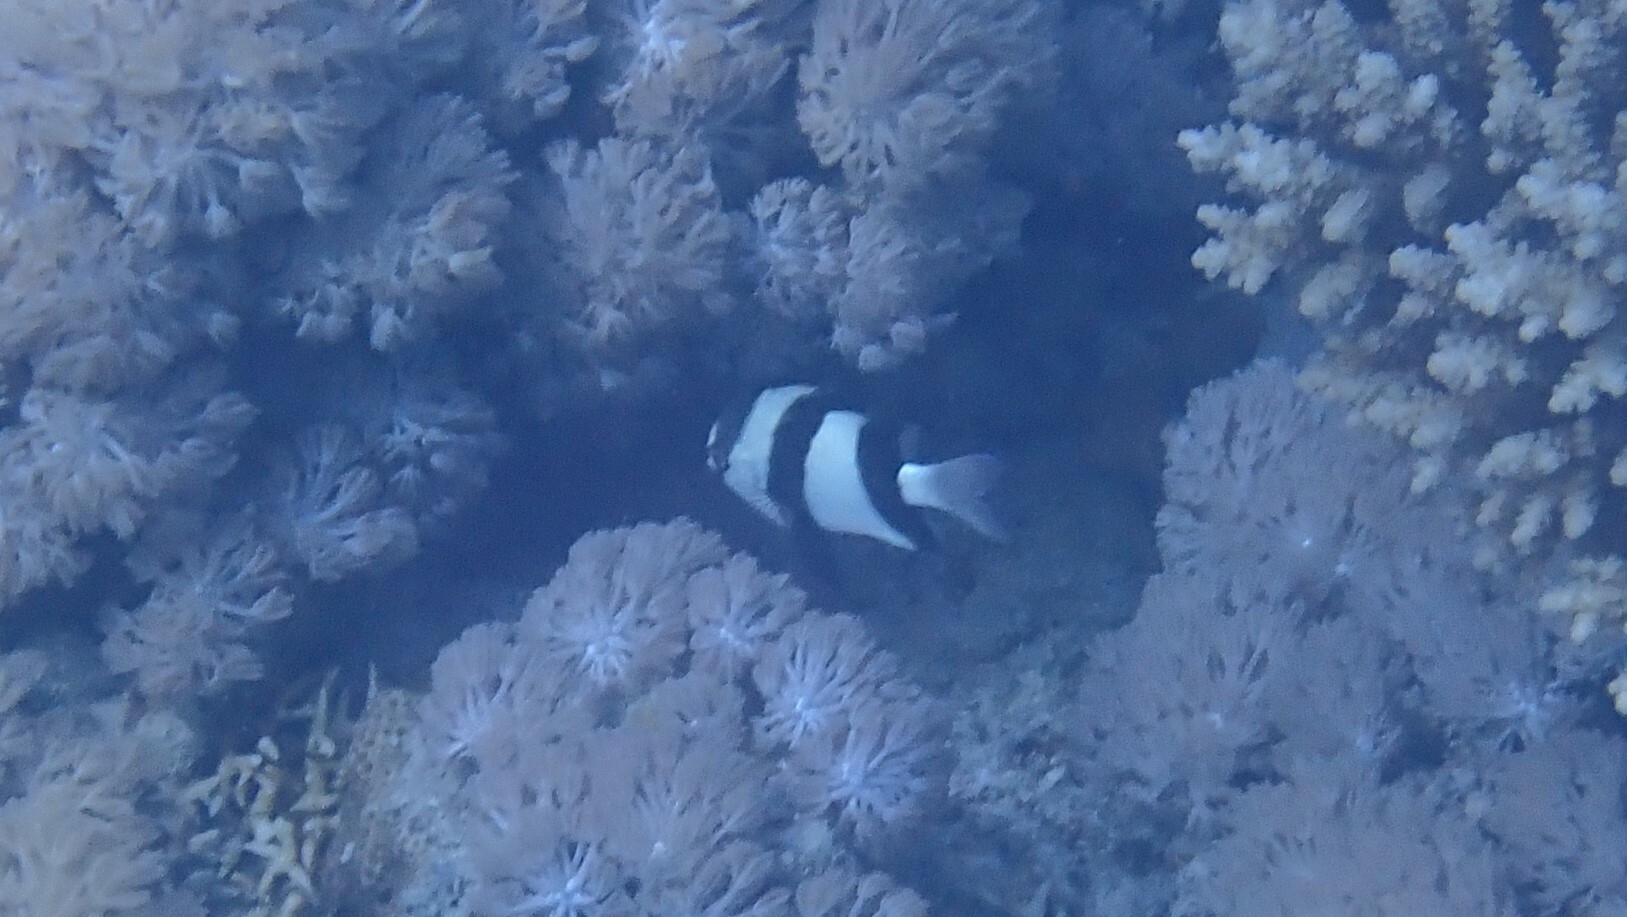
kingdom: Animalia
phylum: Chordata
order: Perciformes
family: Pomacentridae
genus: Dascyllus
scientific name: Dascyllus abudafur
